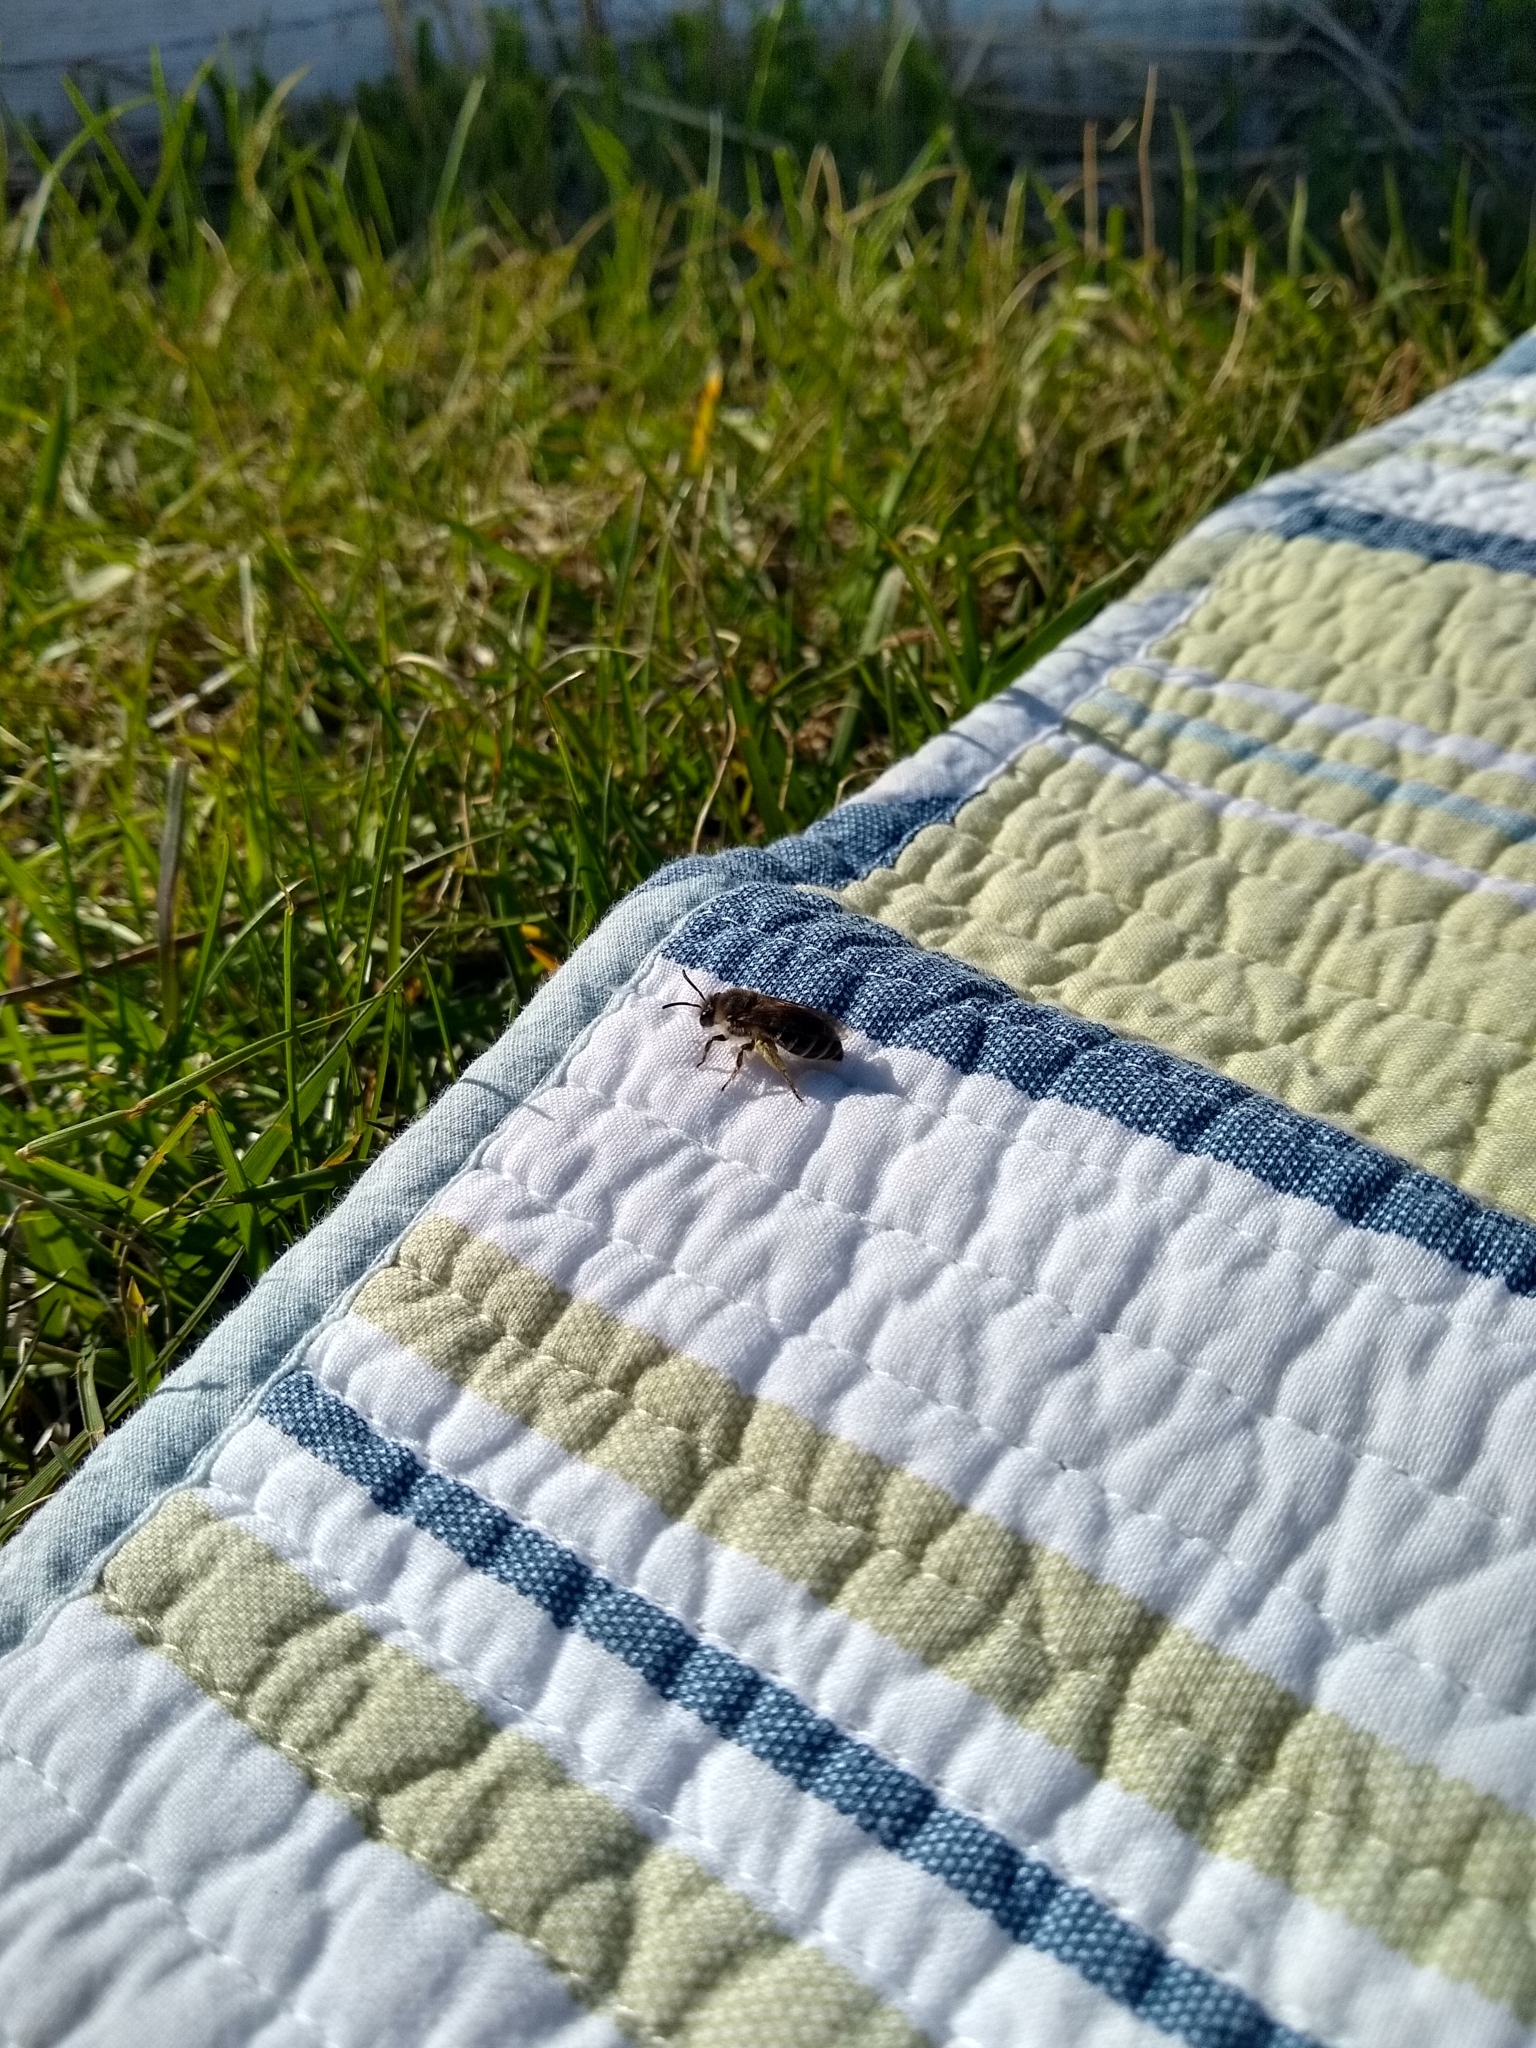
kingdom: Animalia
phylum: Arthropoda
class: Insecta
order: Hymenoptera
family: Colletidae
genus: Colletes
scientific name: Colletes inaequalis
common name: Unequal cellophane bee
